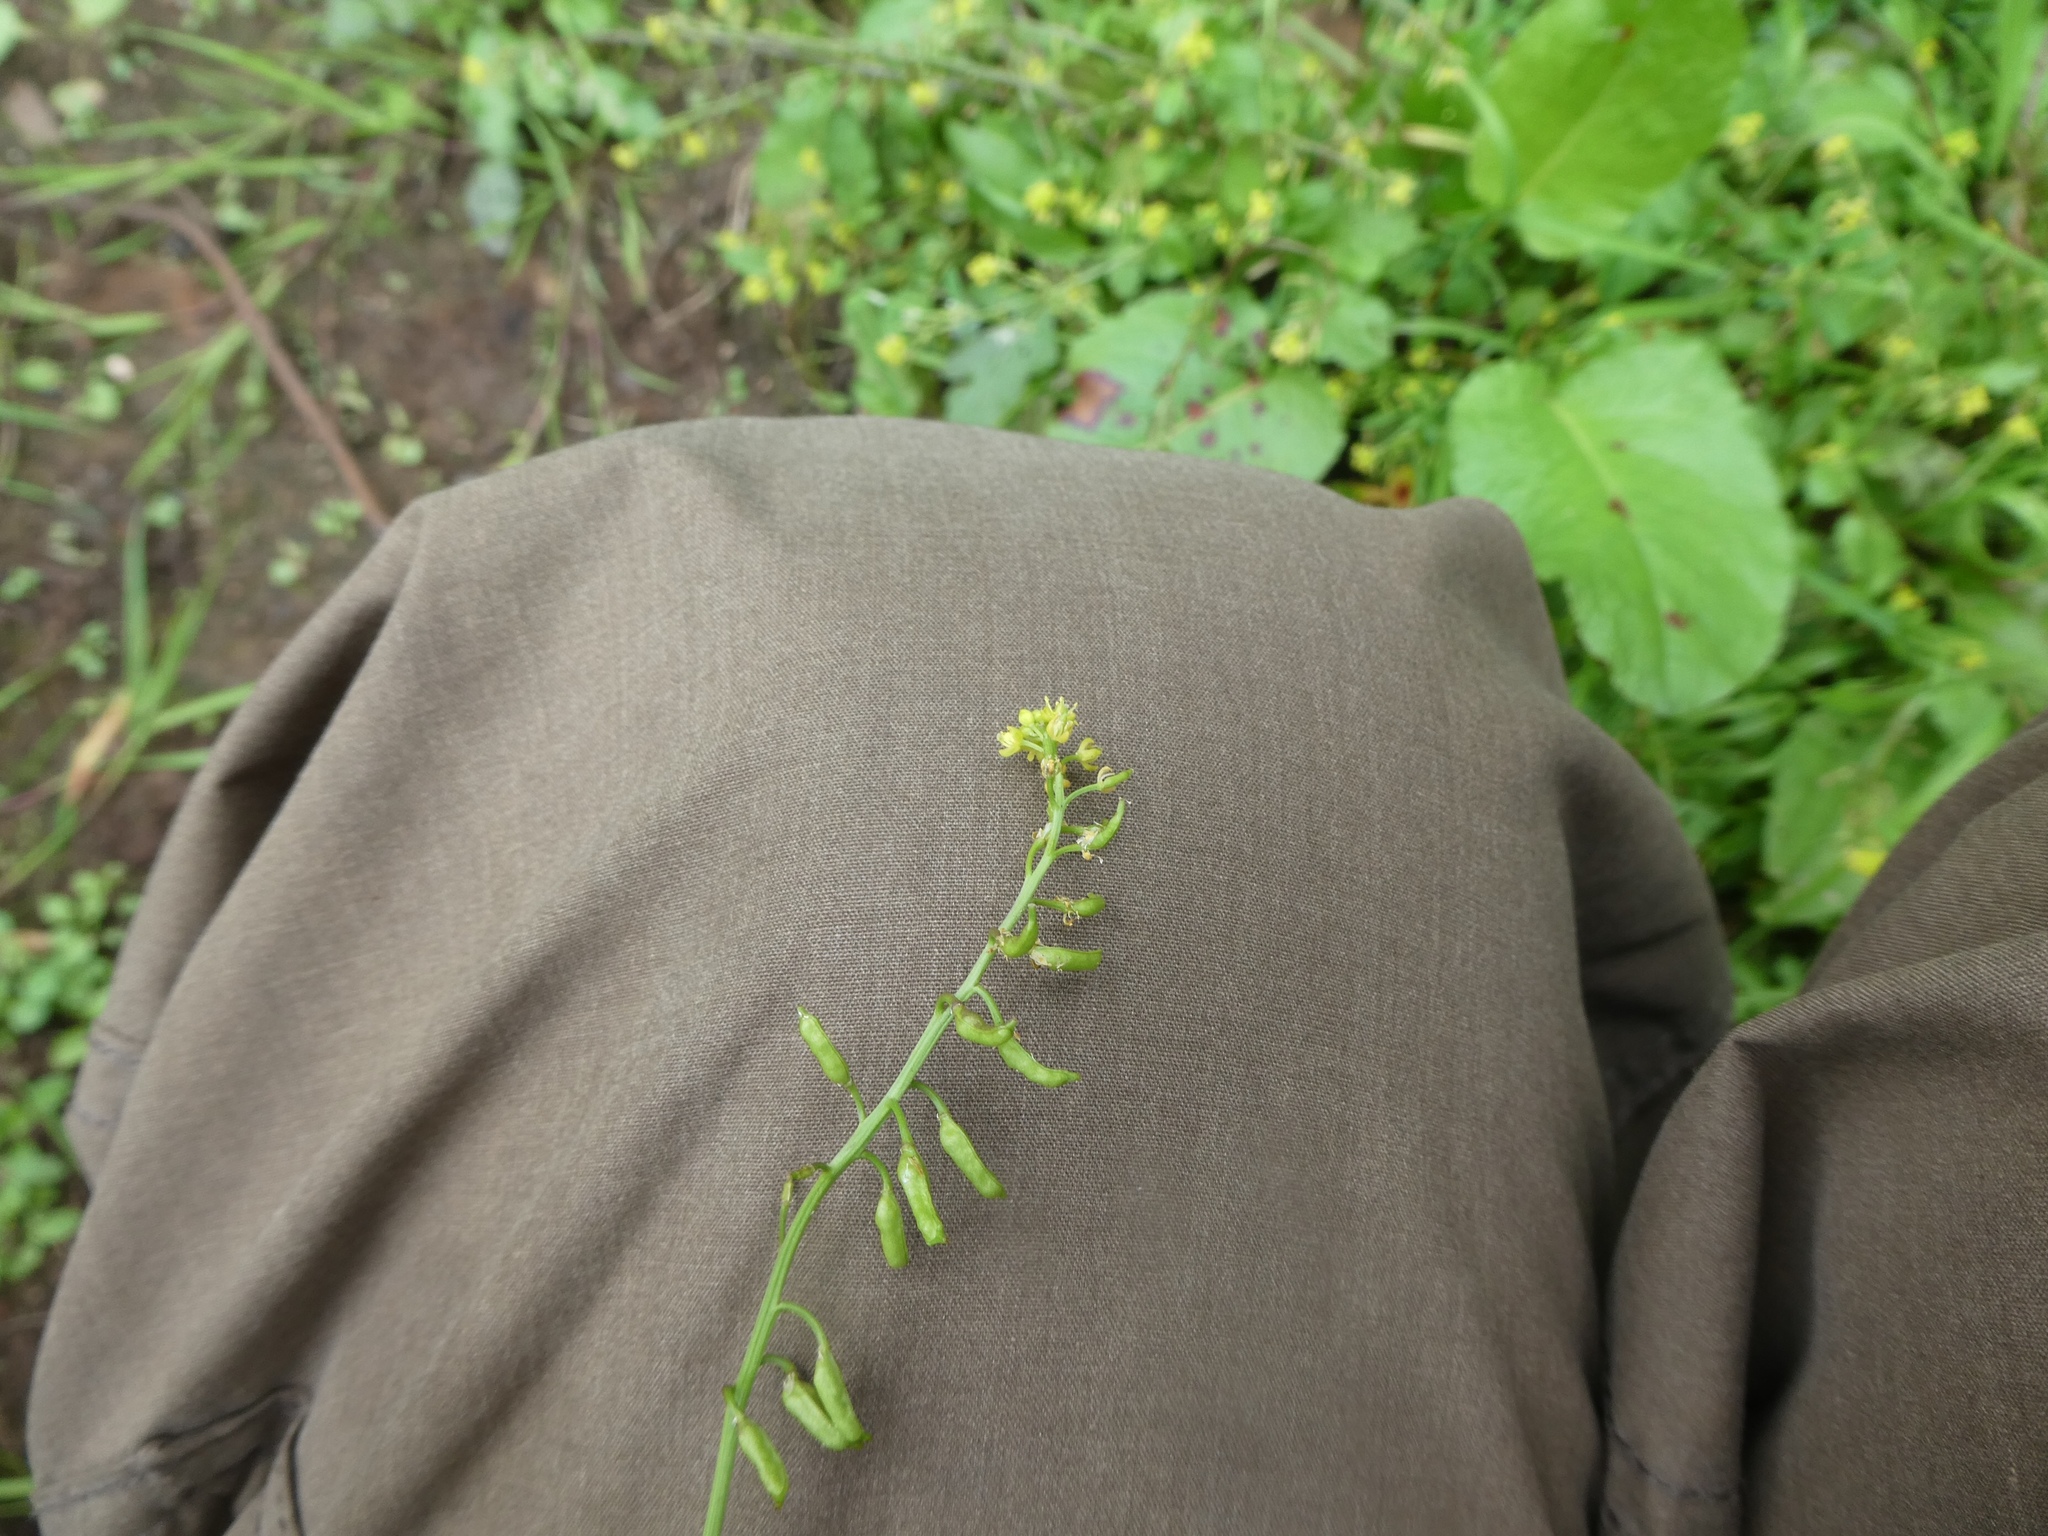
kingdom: Plantae
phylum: Tracheophyta
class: Magnoliopsida
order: Brassicales
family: Brassicaceae
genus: Rorippa
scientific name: Rorippa palustris
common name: Marsh yellow-cress
